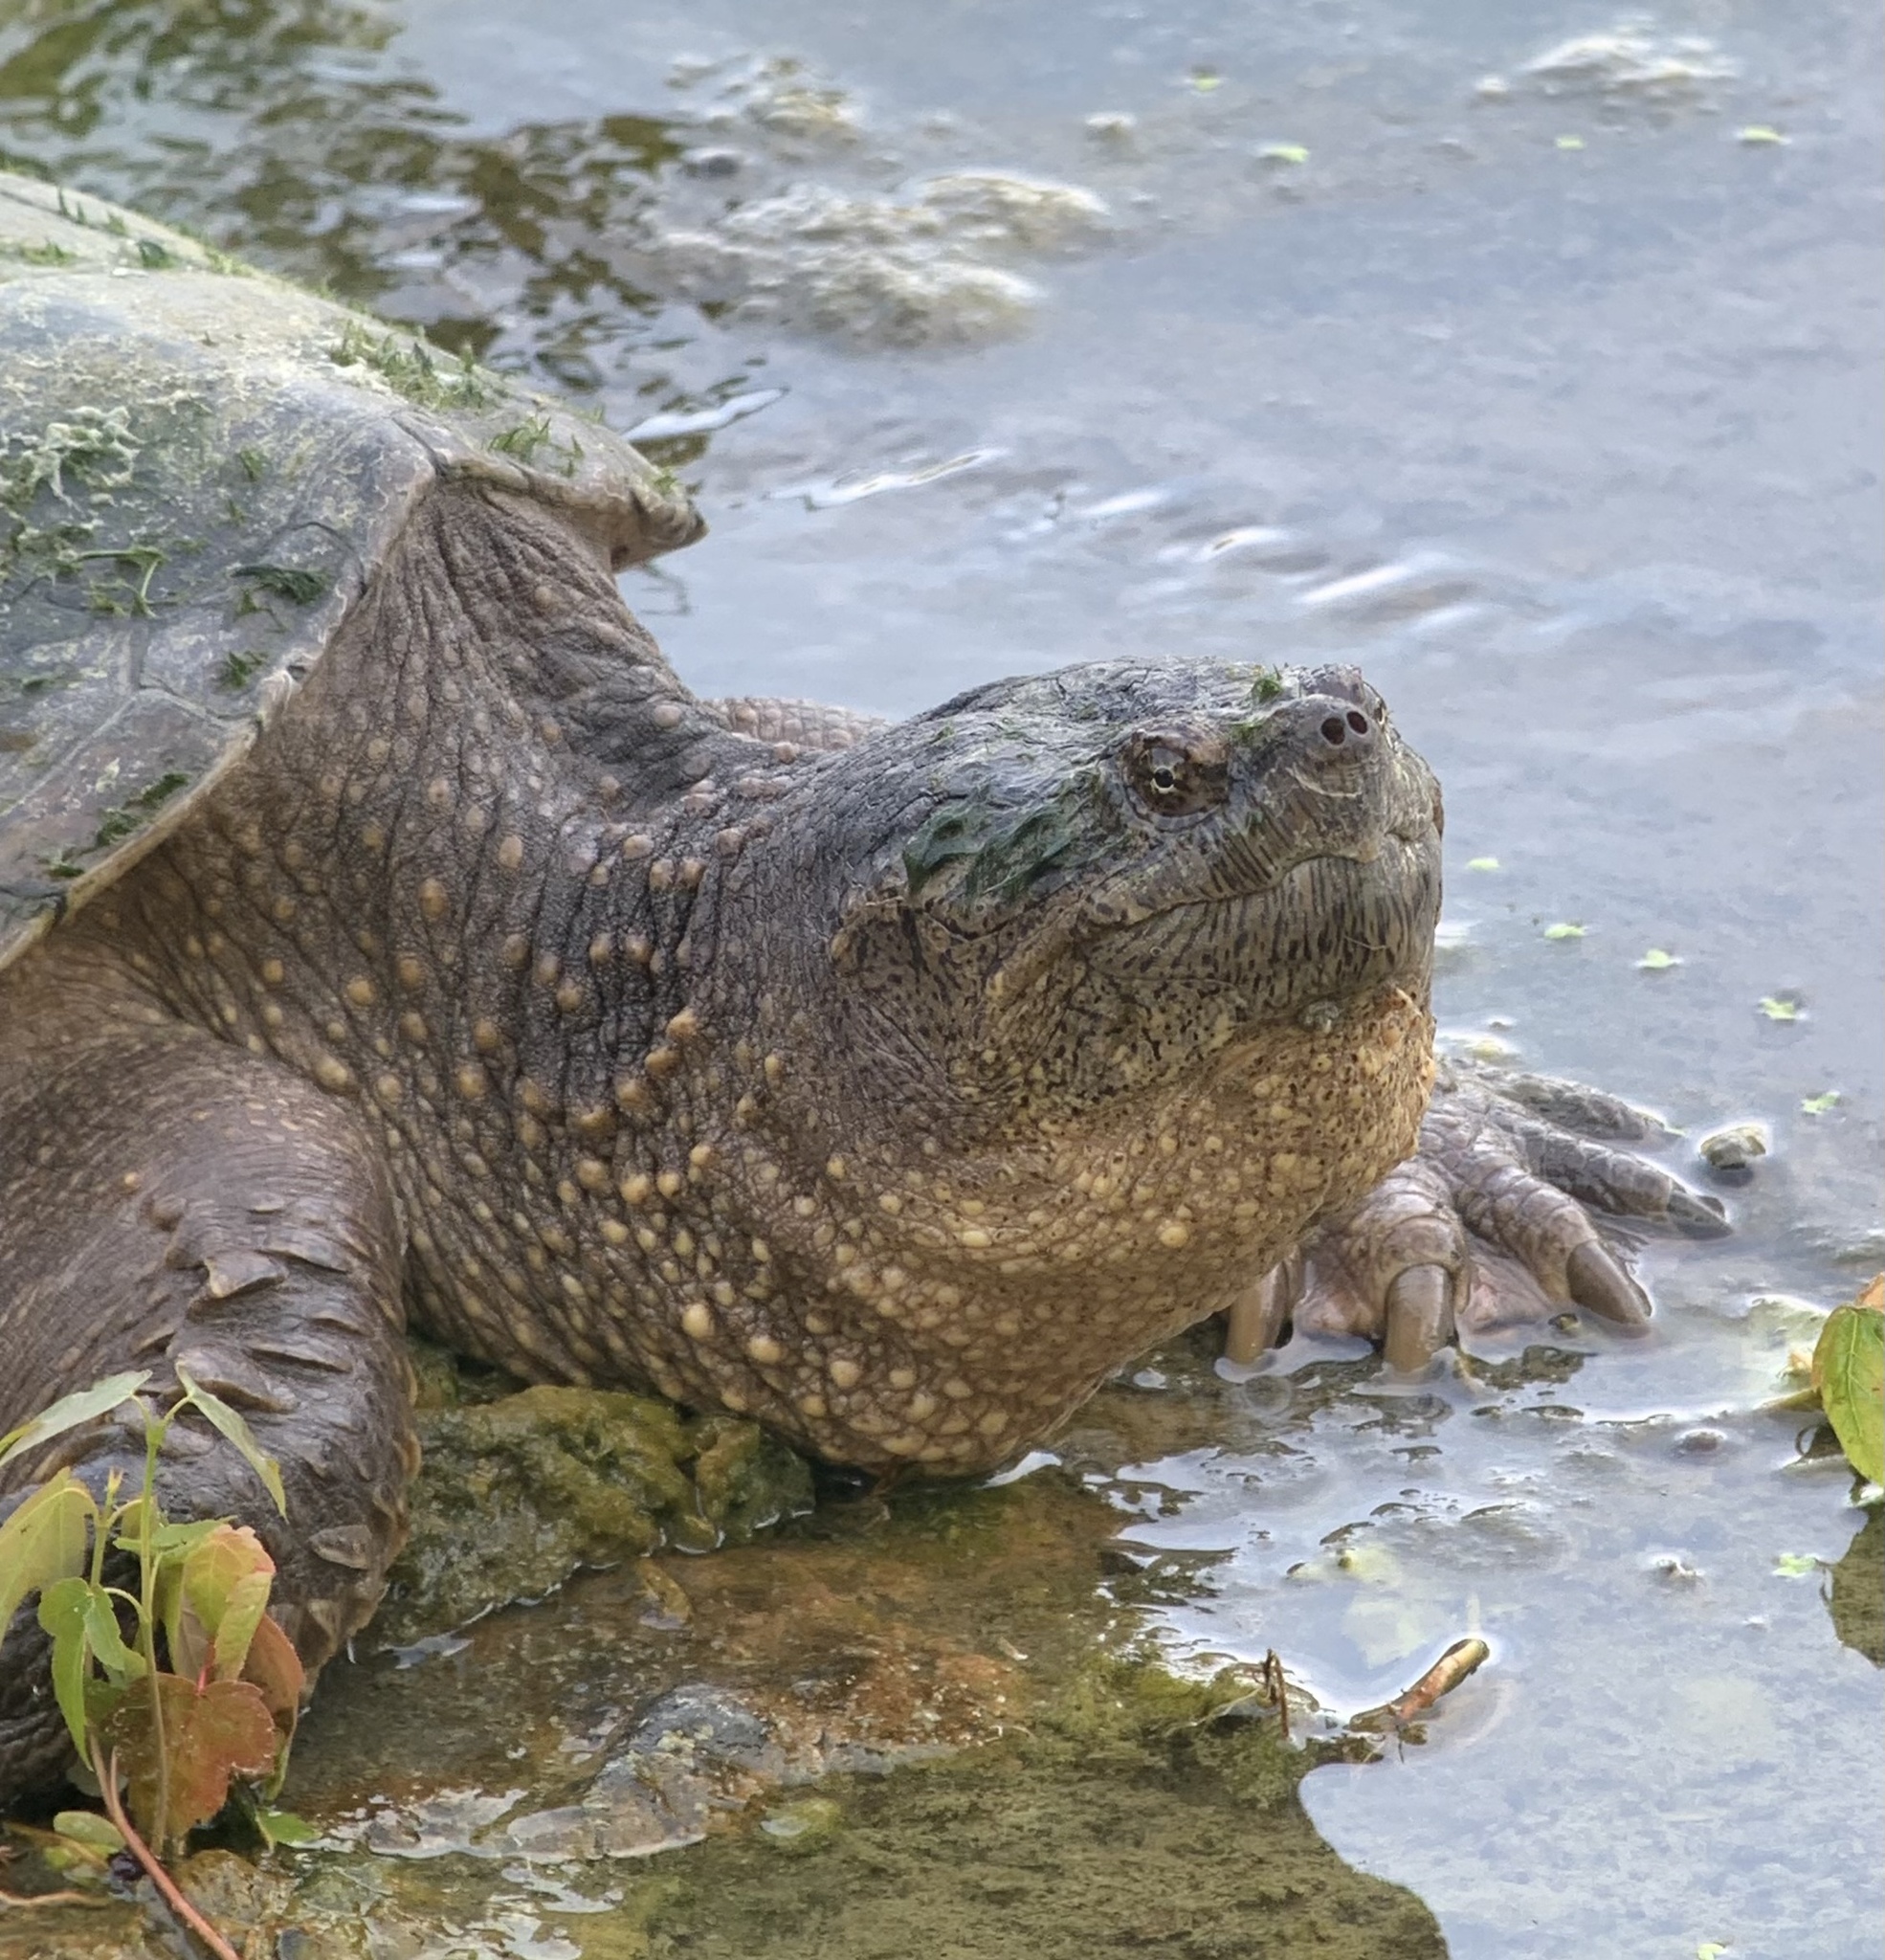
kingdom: Animalia
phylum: Chordata
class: Testudines
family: Chelydridae
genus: Chelydra
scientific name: Chelydra serpentina
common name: Common snapping turtle
